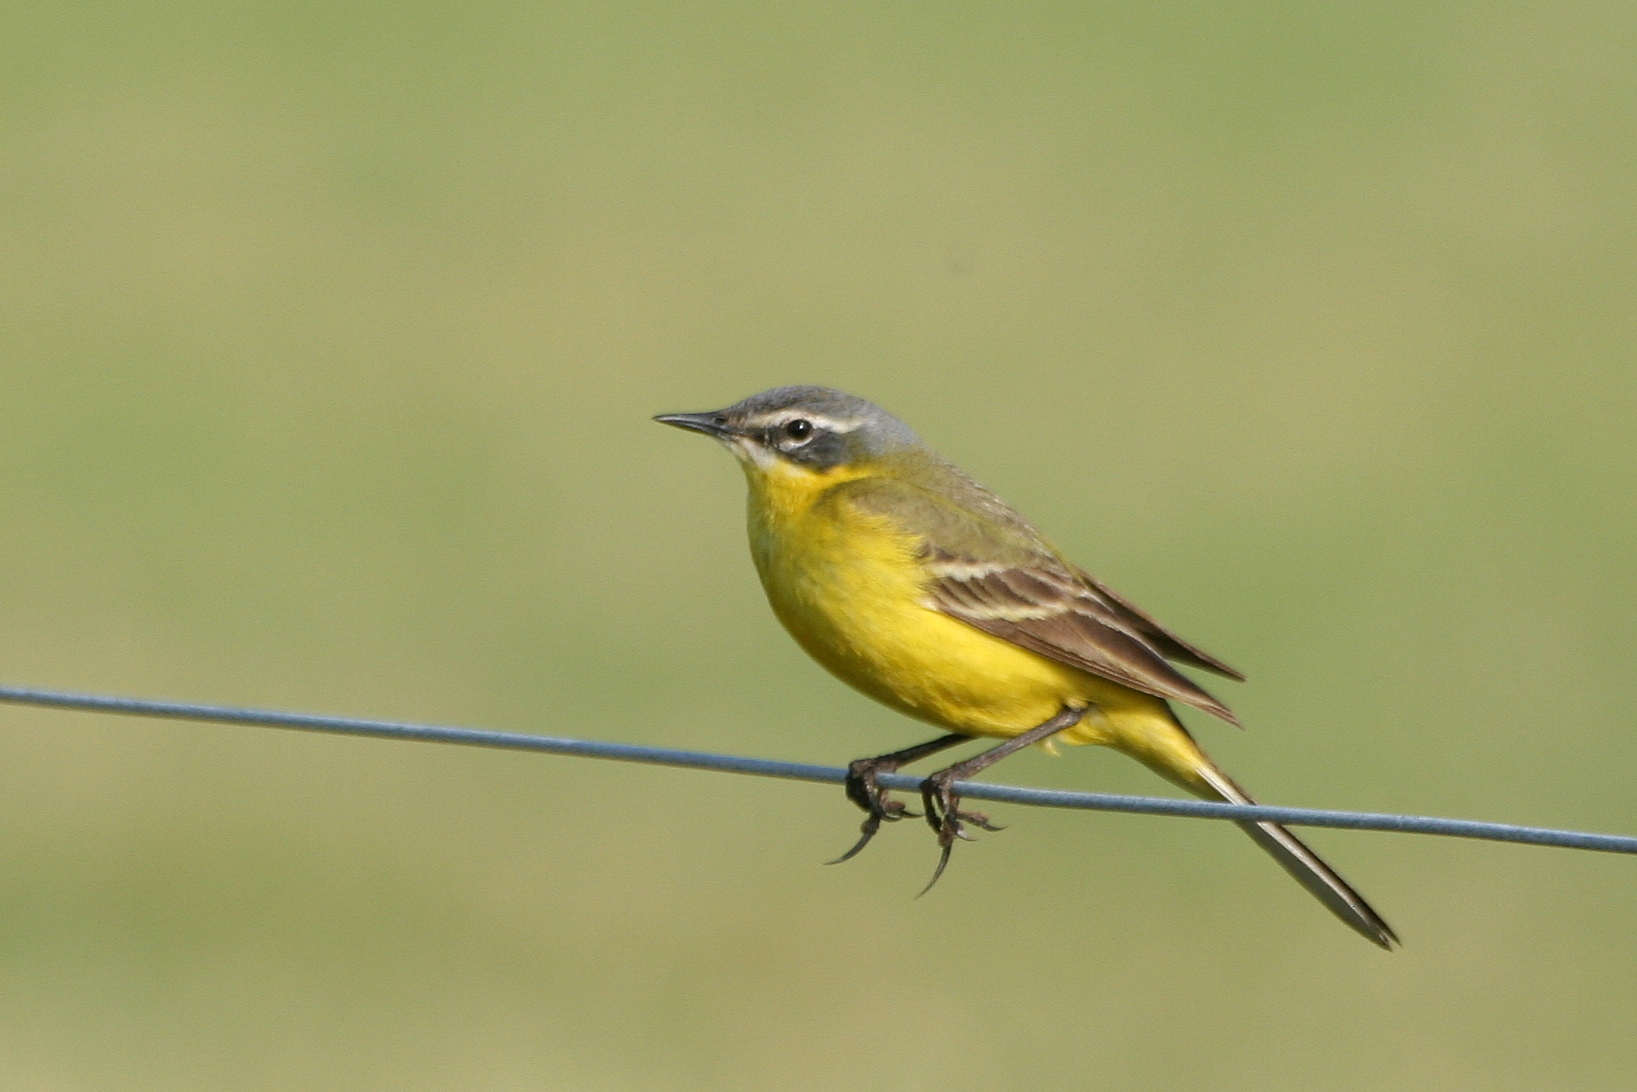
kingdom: Animalia
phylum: Chordata
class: Aves
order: Passeriformes
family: Motacillidae
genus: Motacilla
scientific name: Motacilla flava
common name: Western yellow wagtail
